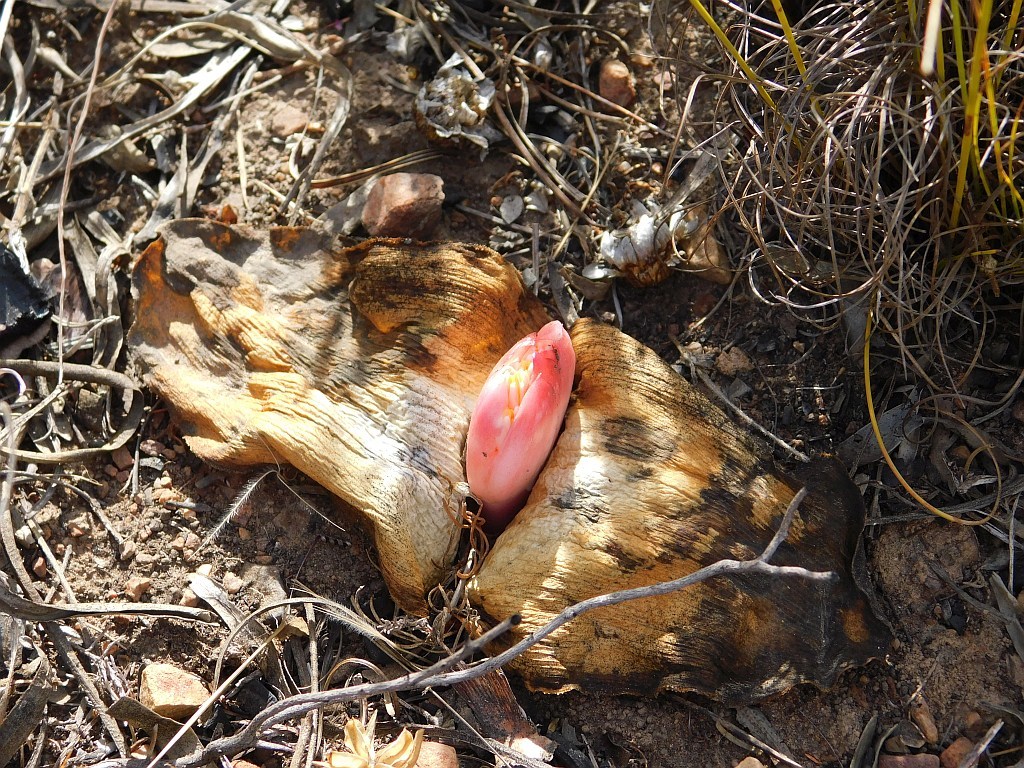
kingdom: Plantae
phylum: Tracheophyta
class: Liliopsida
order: Asparagales
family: Amaryllidaceae
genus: Haemanthus
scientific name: Haemanthus sanguineus
